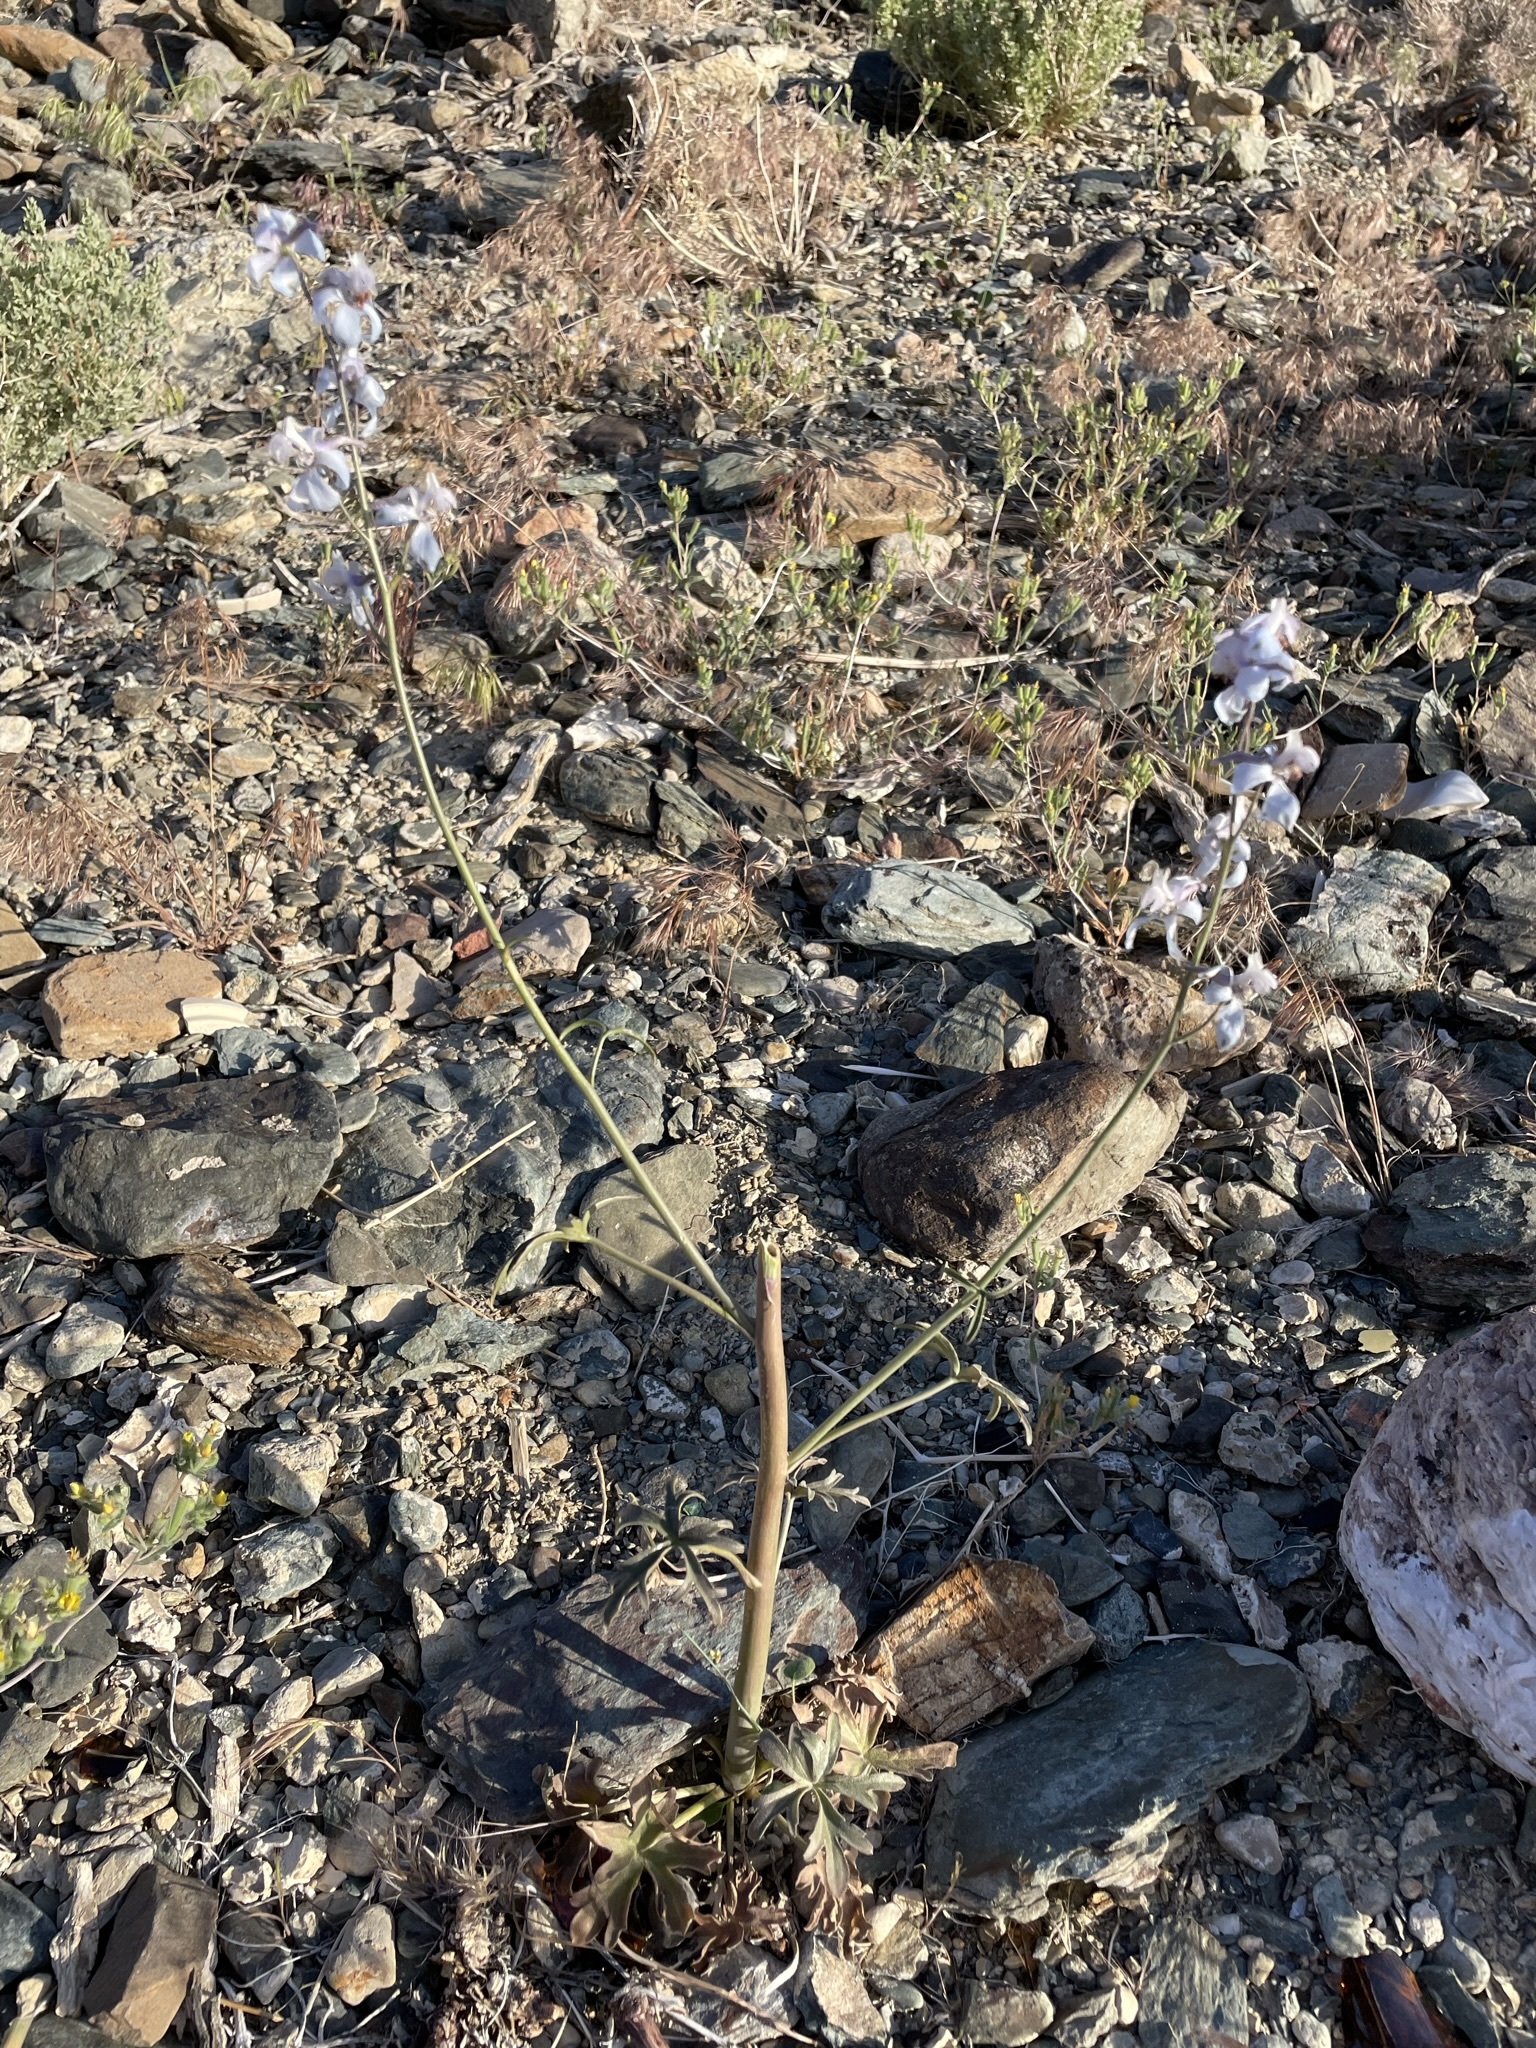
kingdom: Plantae
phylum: Tracheophyta
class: Magnoliopsida
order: Ranunculales
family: Ranunculaceae
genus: Delphinium
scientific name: Delphinium parishii
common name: Apache larkspur
